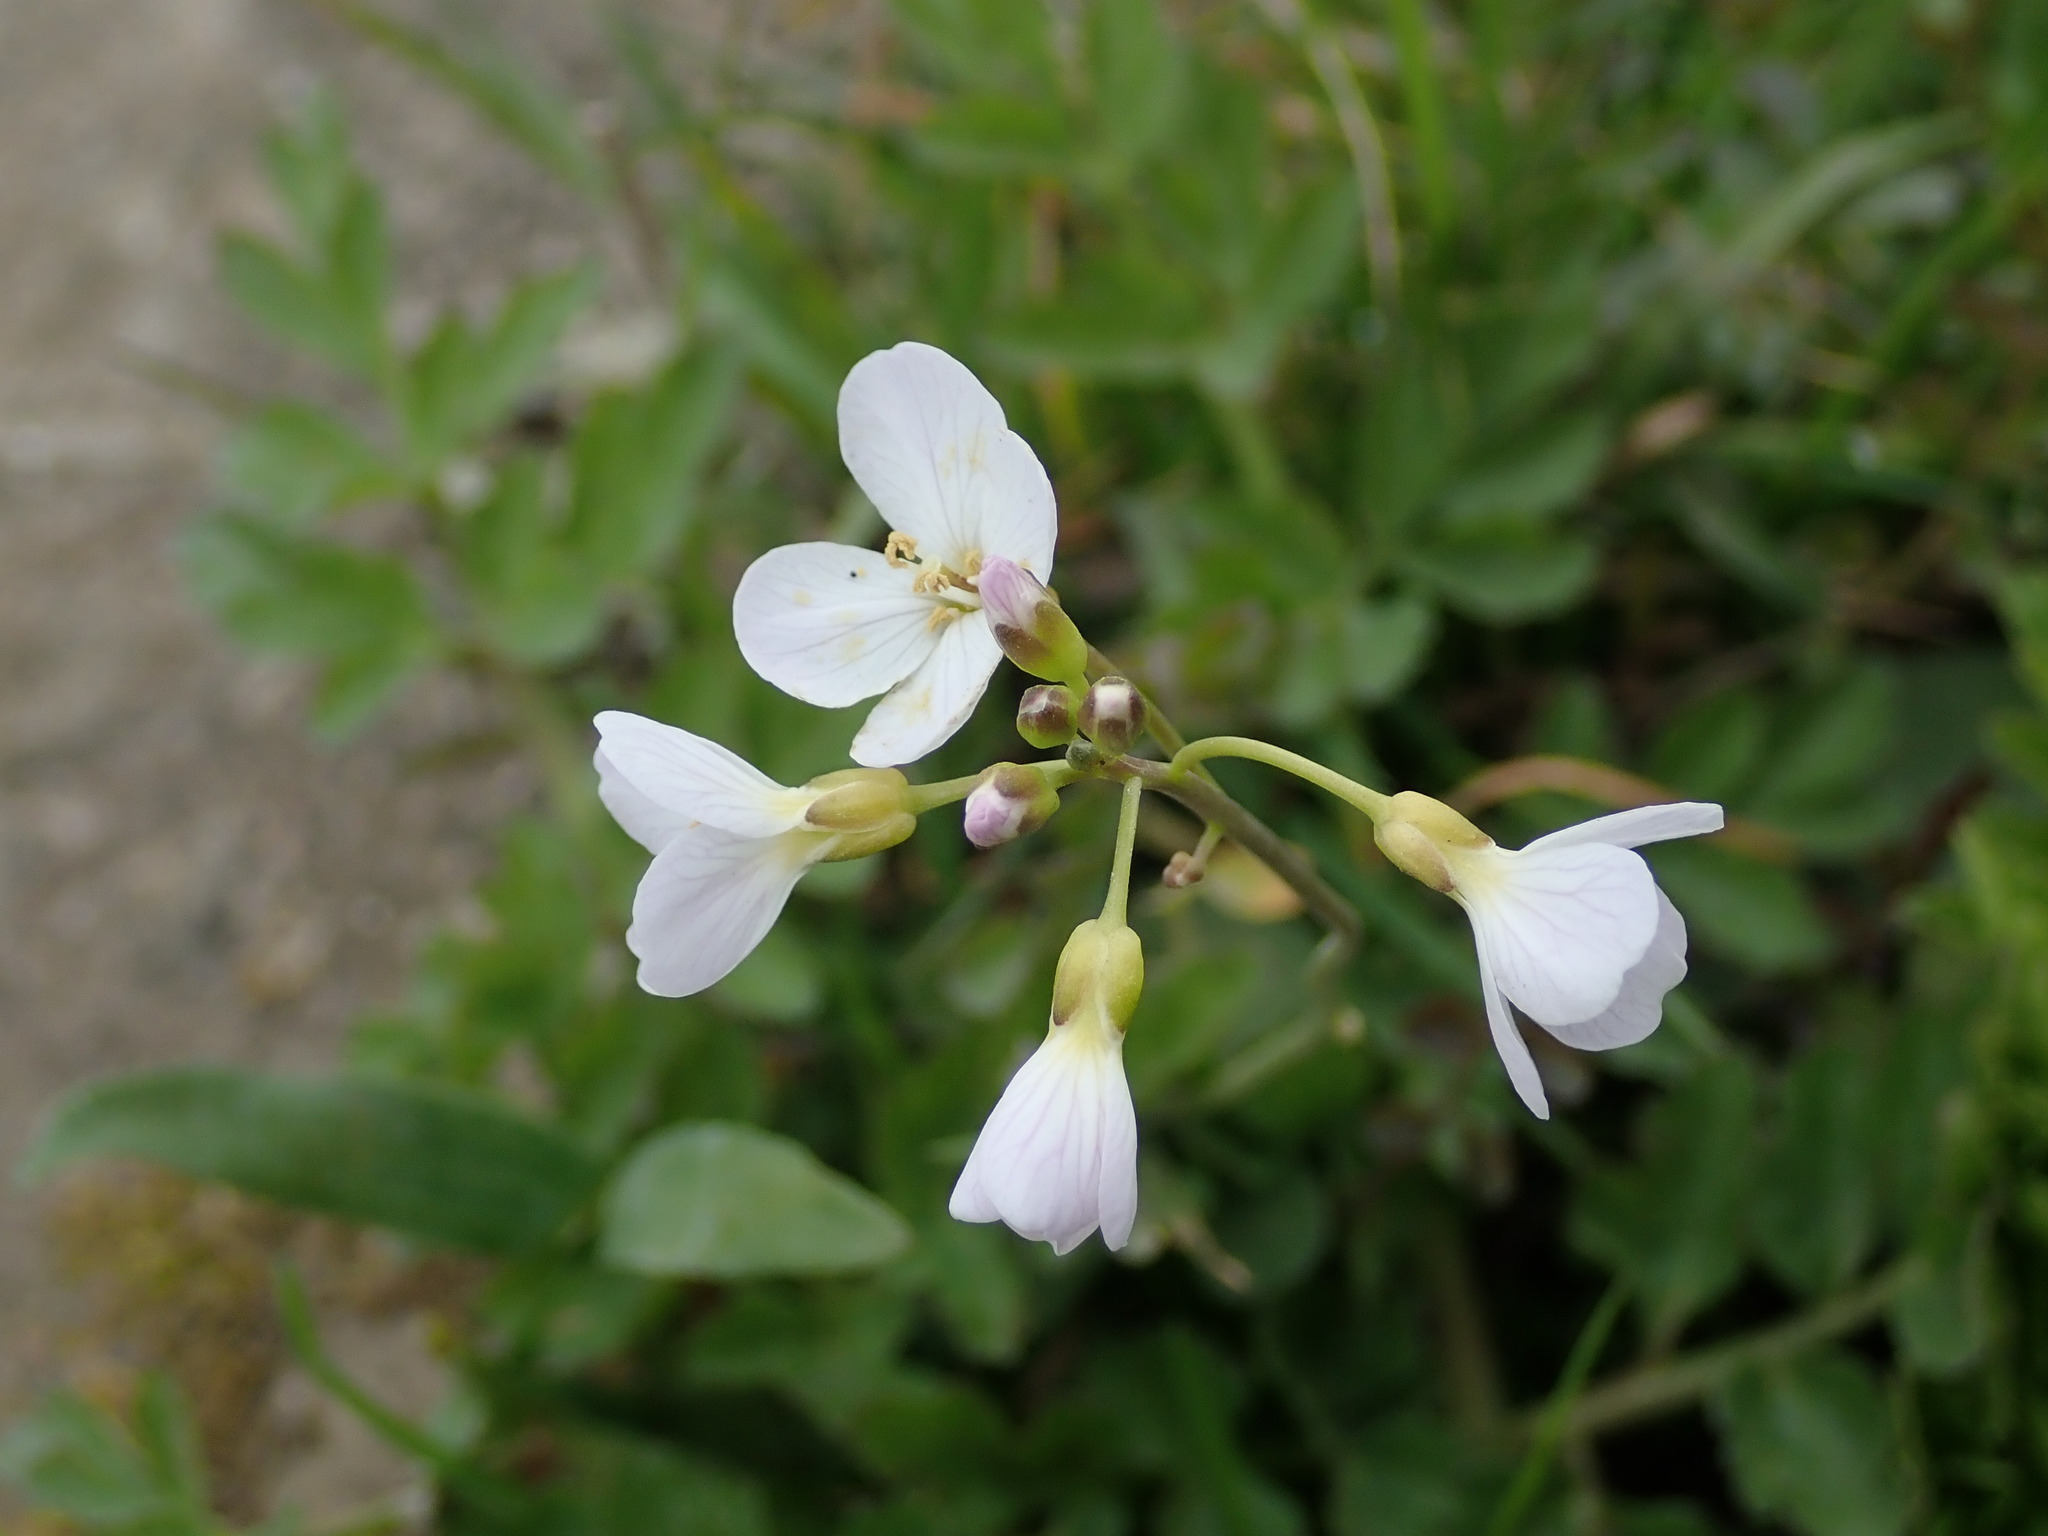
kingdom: Plantae
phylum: Tracheophyta
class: Magnoliopsida
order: Brassicales
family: Brassicaceae
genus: Cardamine
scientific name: Cardamine pratensis
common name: Cuckoo flower
